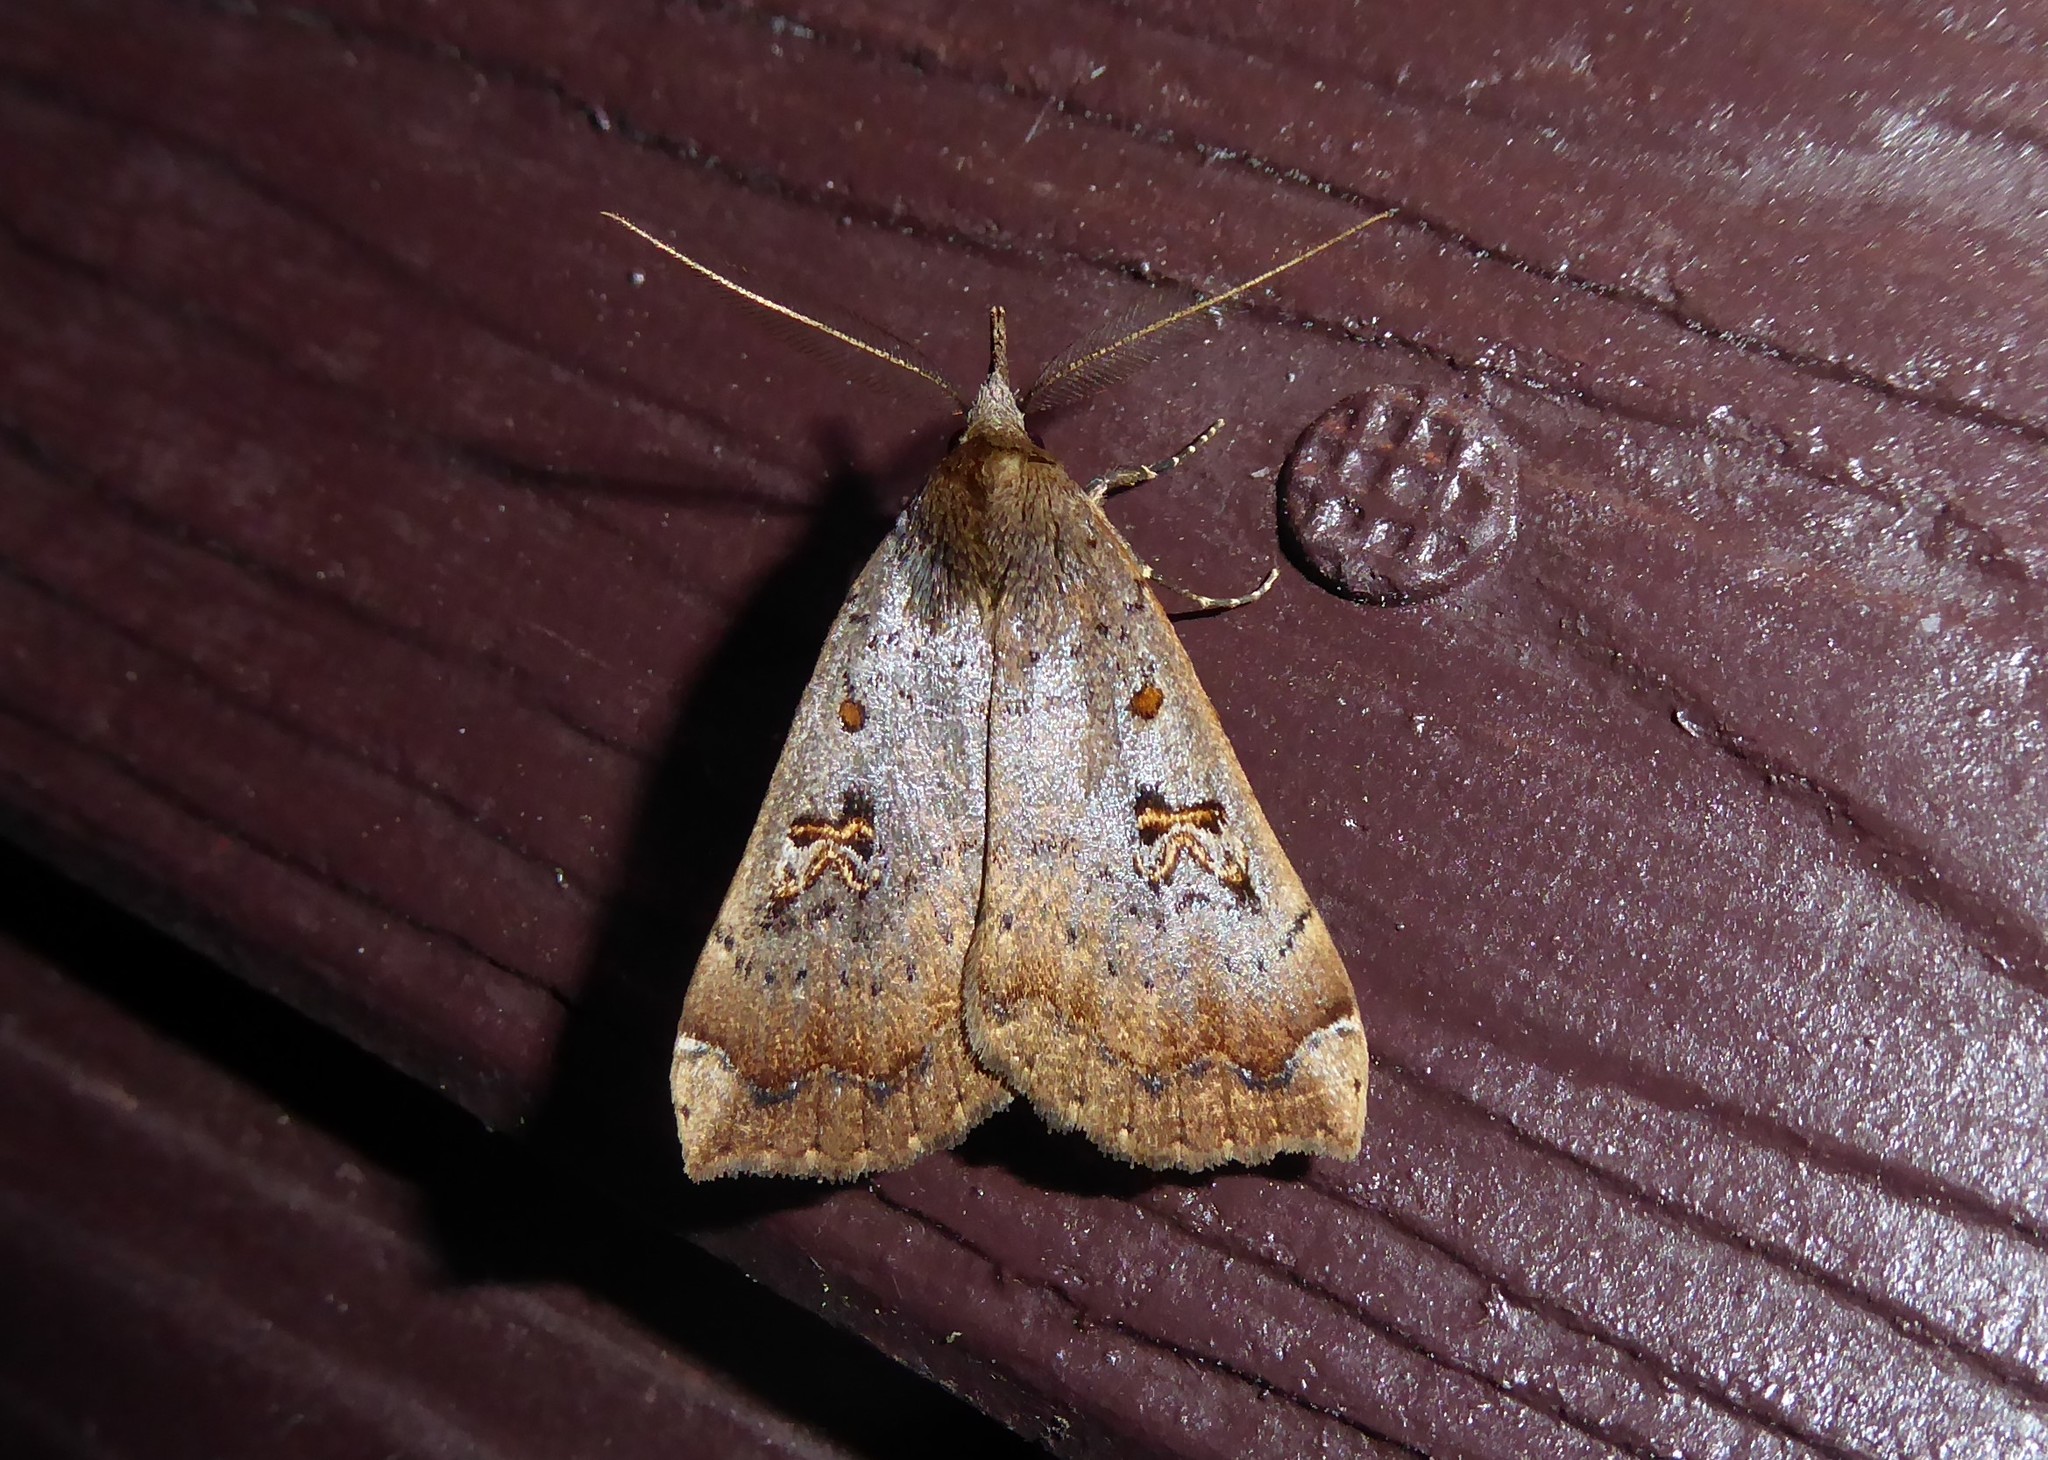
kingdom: Animalia
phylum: Arthropoda
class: Insecta
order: Lepidoptera
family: Erebidae
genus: Rhapsa
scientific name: Rhapsa scotosialis
